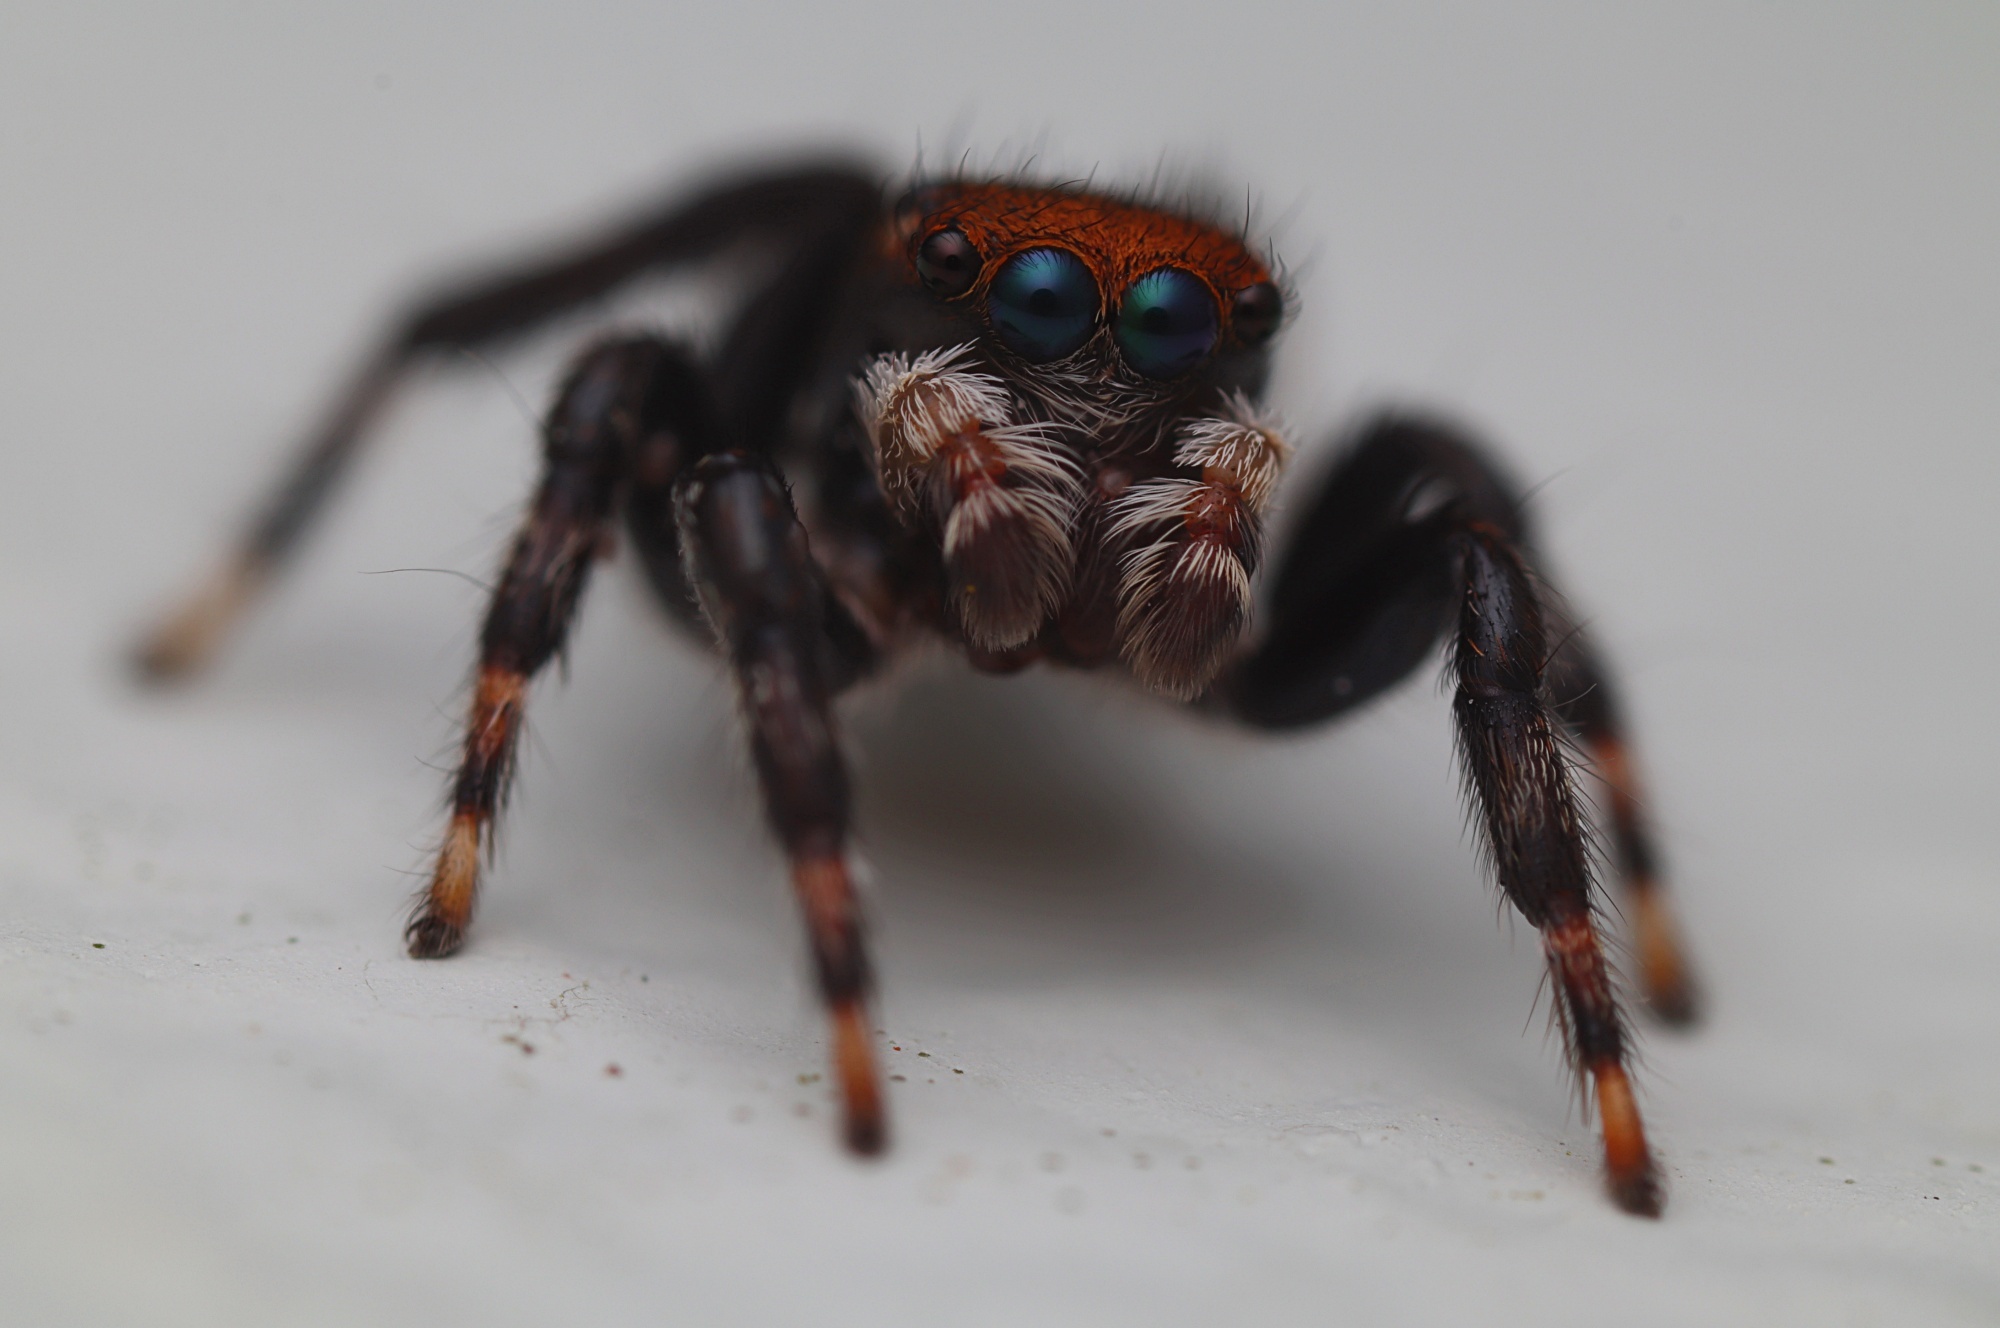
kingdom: Animalia
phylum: Arthropoda
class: Arachnida
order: Araneae
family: Salticidae
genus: Maratus
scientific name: Maratus griseus
